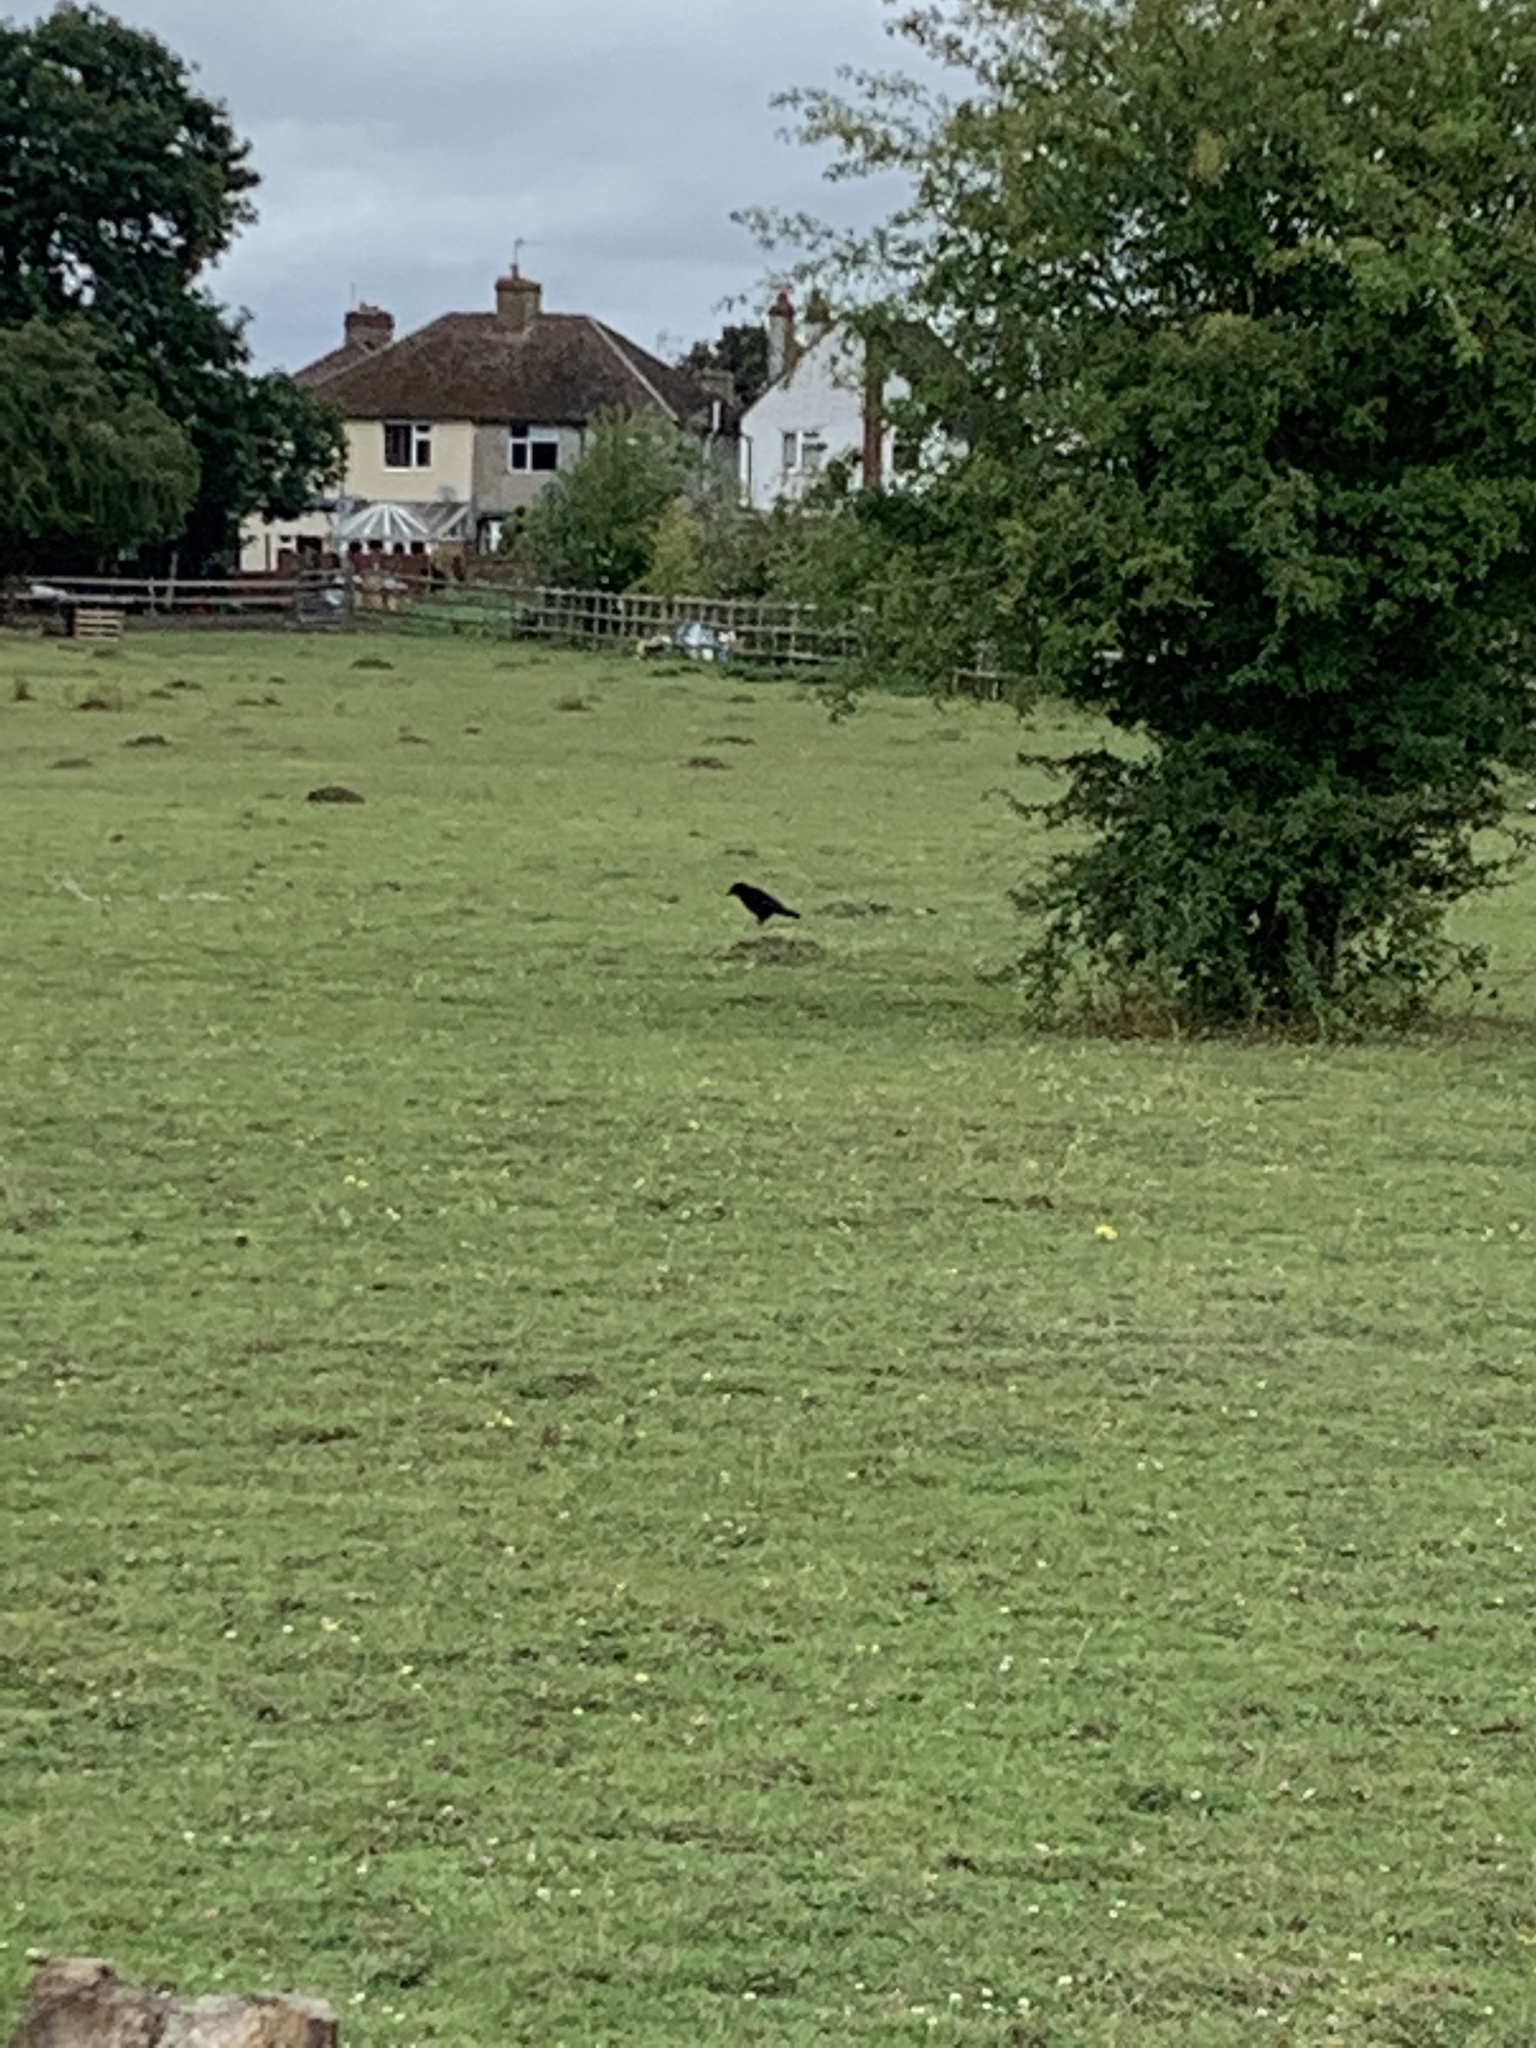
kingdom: Animalia
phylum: Chordata
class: Aves
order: Passeriformes
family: Corvidae
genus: Corvus
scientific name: Corvus corone
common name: Carrion crow
